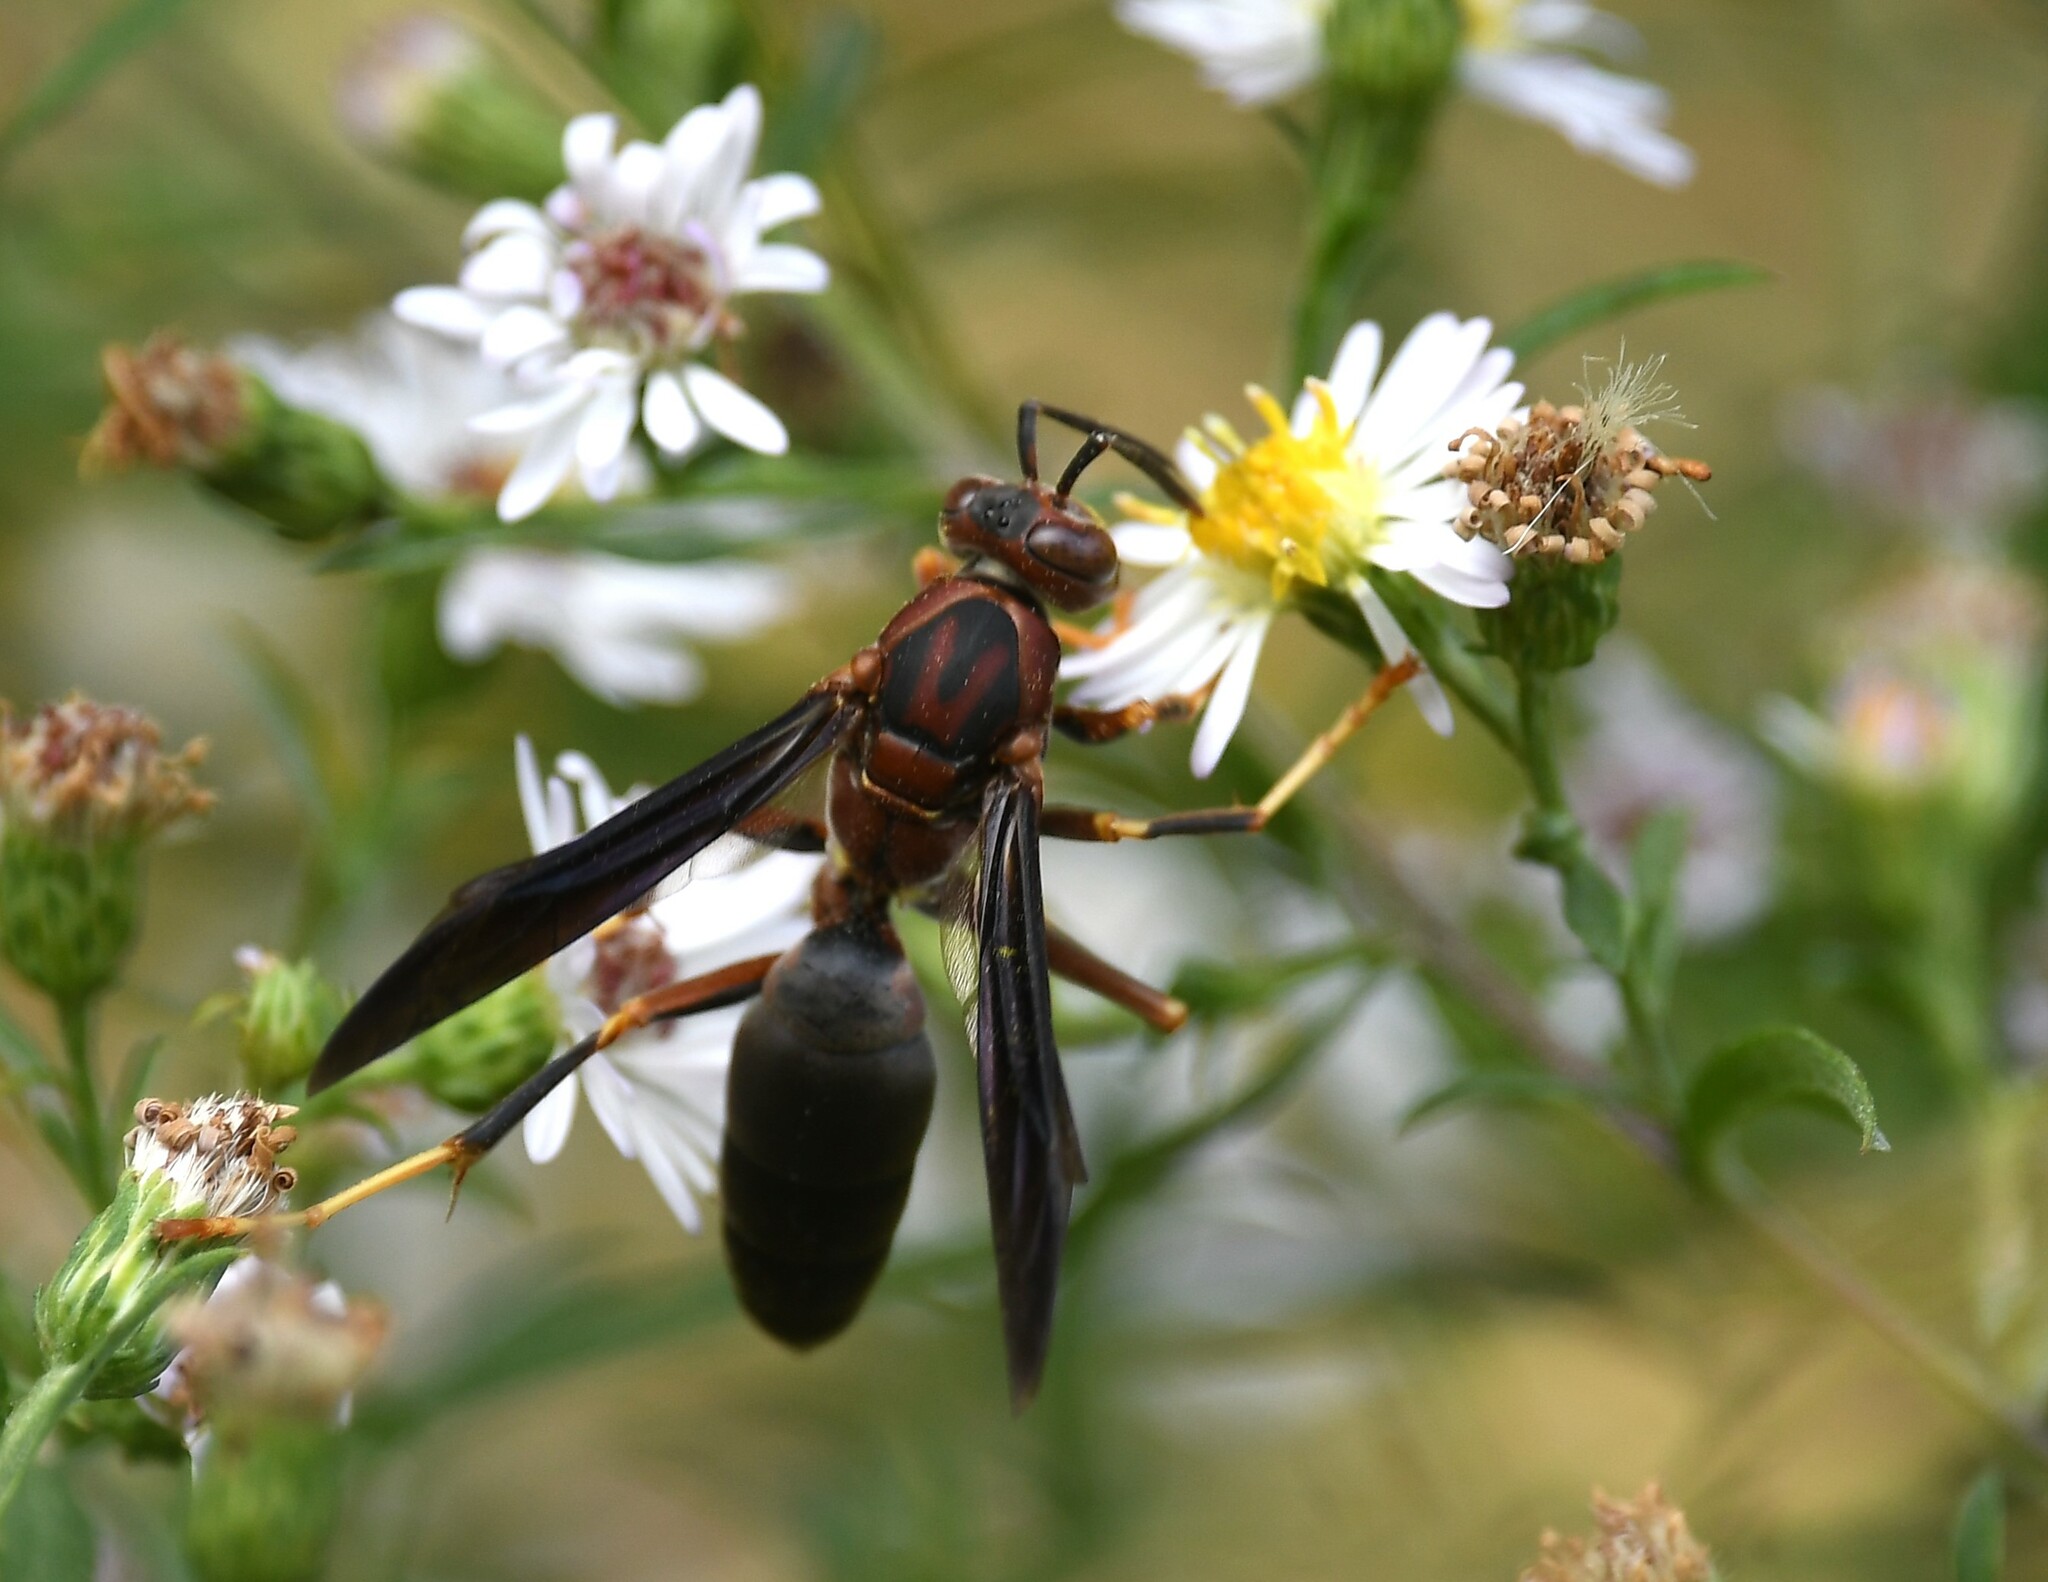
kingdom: Animalia
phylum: Arthropoda
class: Insecta
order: Hymenoptera
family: Eumenidae
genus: Polistes
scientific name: Polistes metricus
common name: Metric paper wasp
